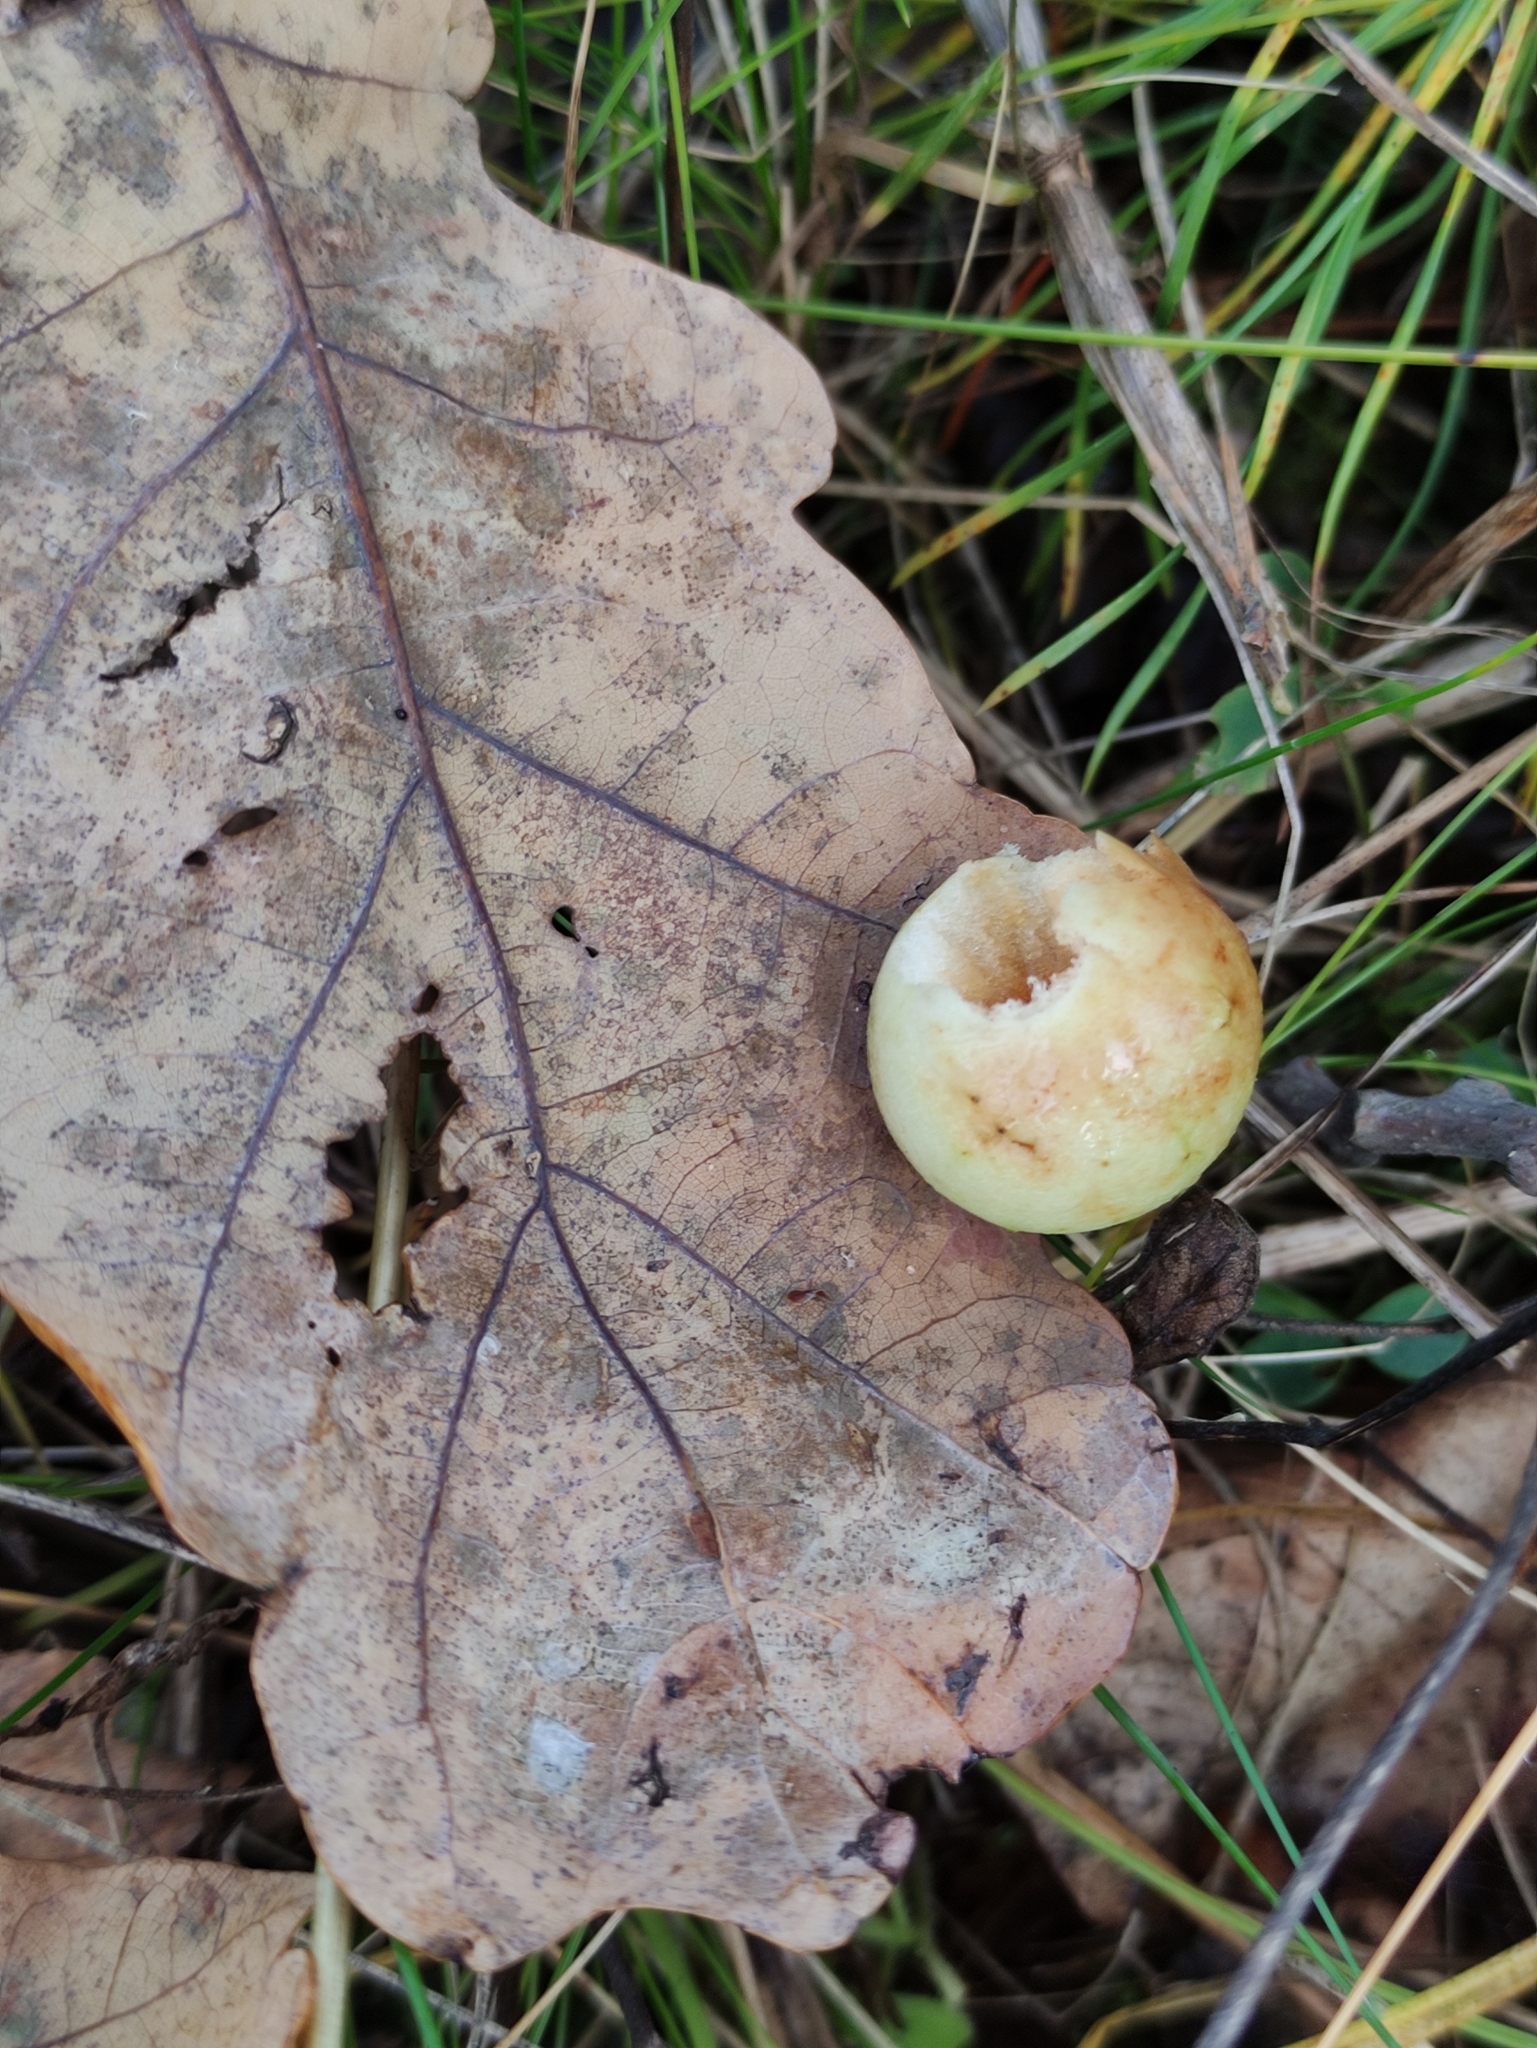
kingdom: Animalia
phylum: Arthropoda
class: Insecta
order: Hymenoptera
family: Cynipidae
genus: Cynips
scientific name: Cynips quercusfolii
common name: Cherry gall
